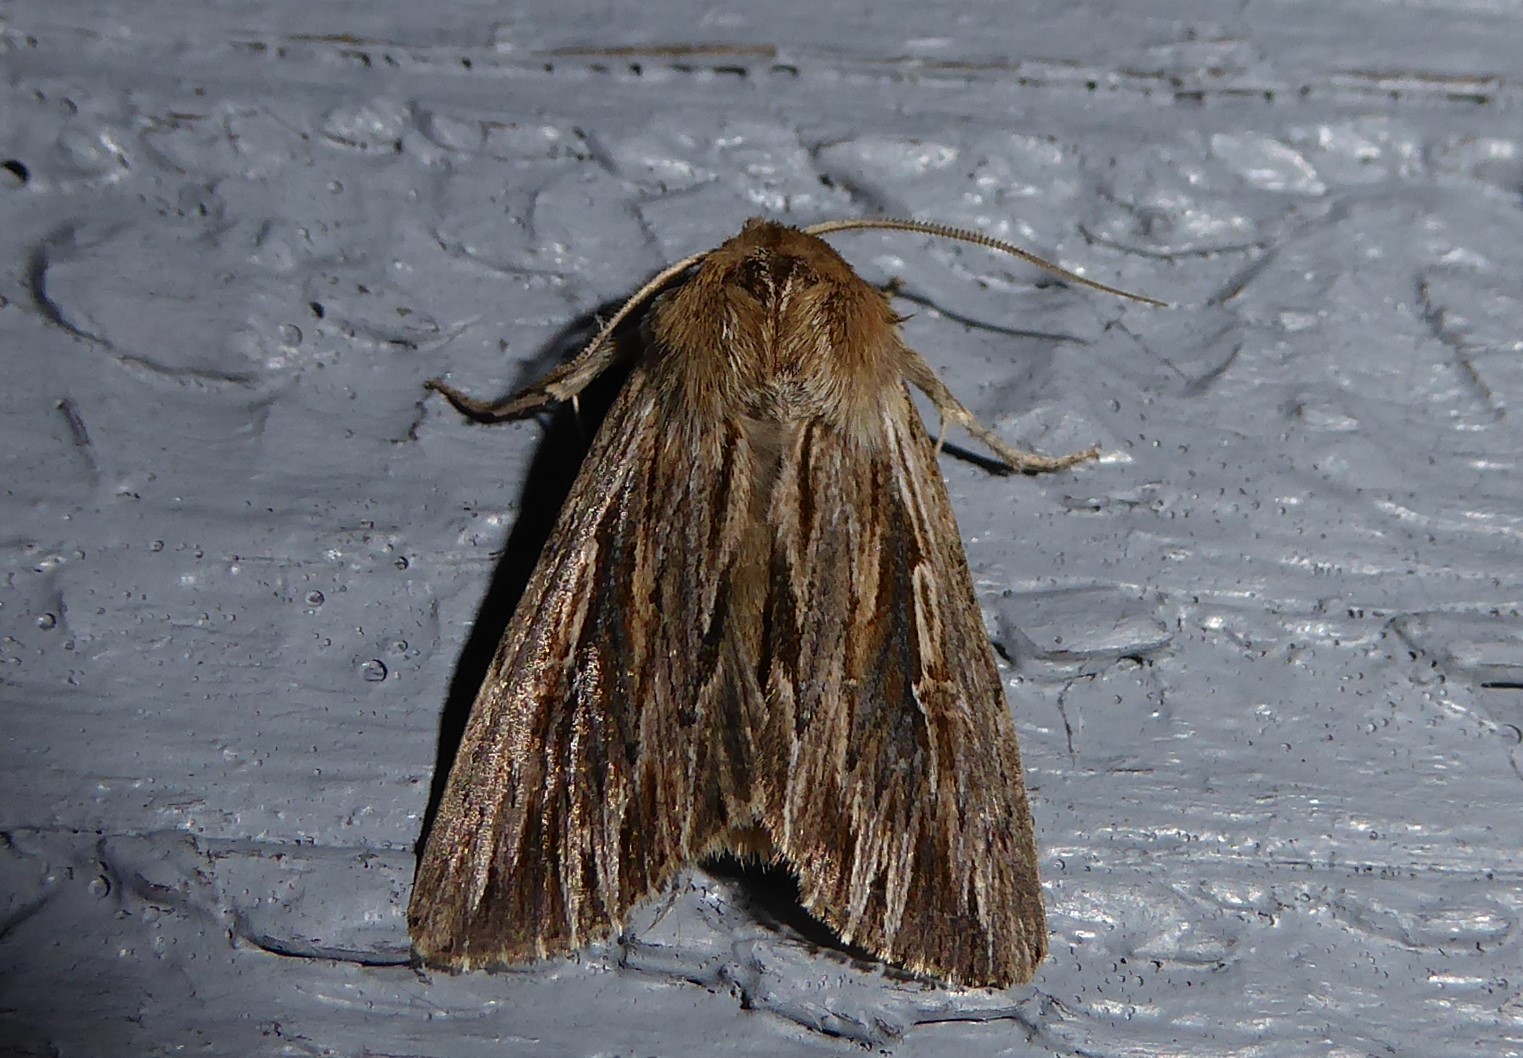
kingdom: Animalia
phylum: Arthropoda
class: Insecta
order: Lepidoptera
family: Noctuidae
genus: Persectania
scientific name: Persectania aversa
